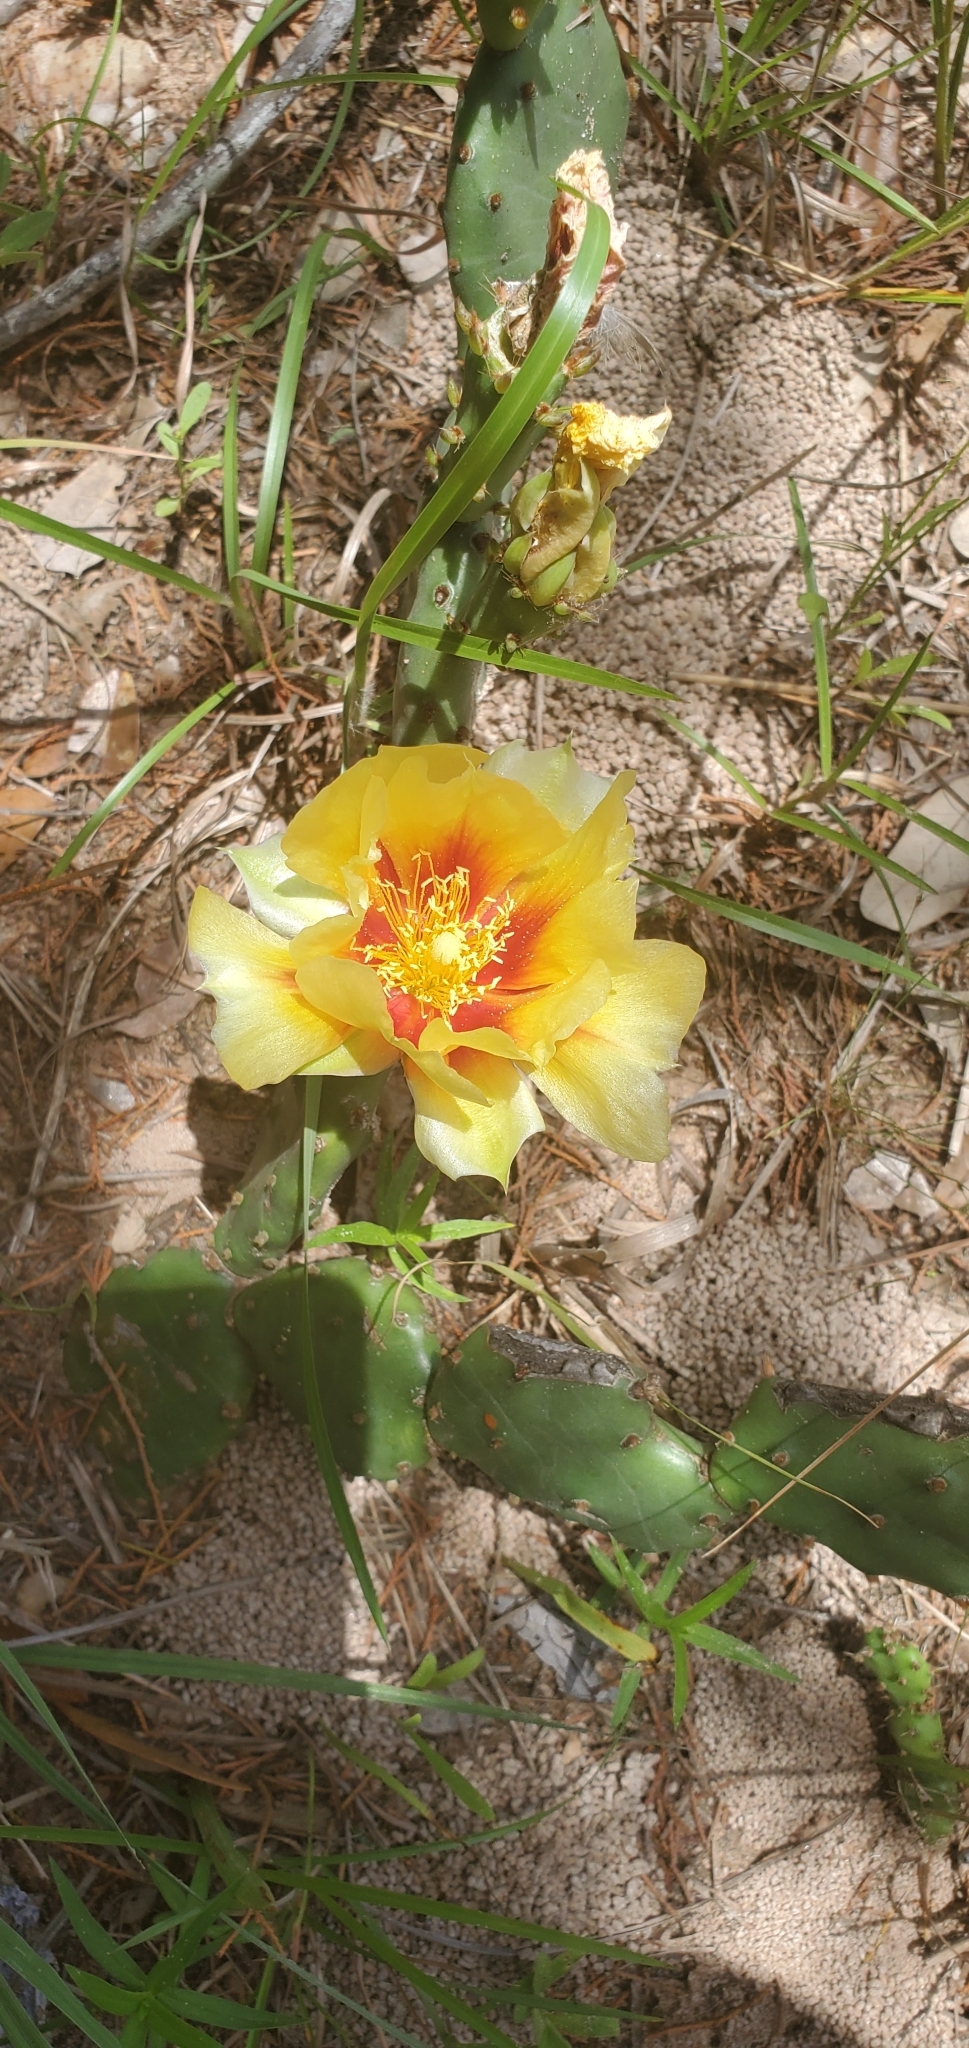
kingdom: Plantae
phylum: Tracheophyta
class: Magnoliopsida
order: Caryophyllales
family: Cactaceae
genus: Opuntia
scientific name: Opuntia macrorhiza
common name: Grassland pricklypear
